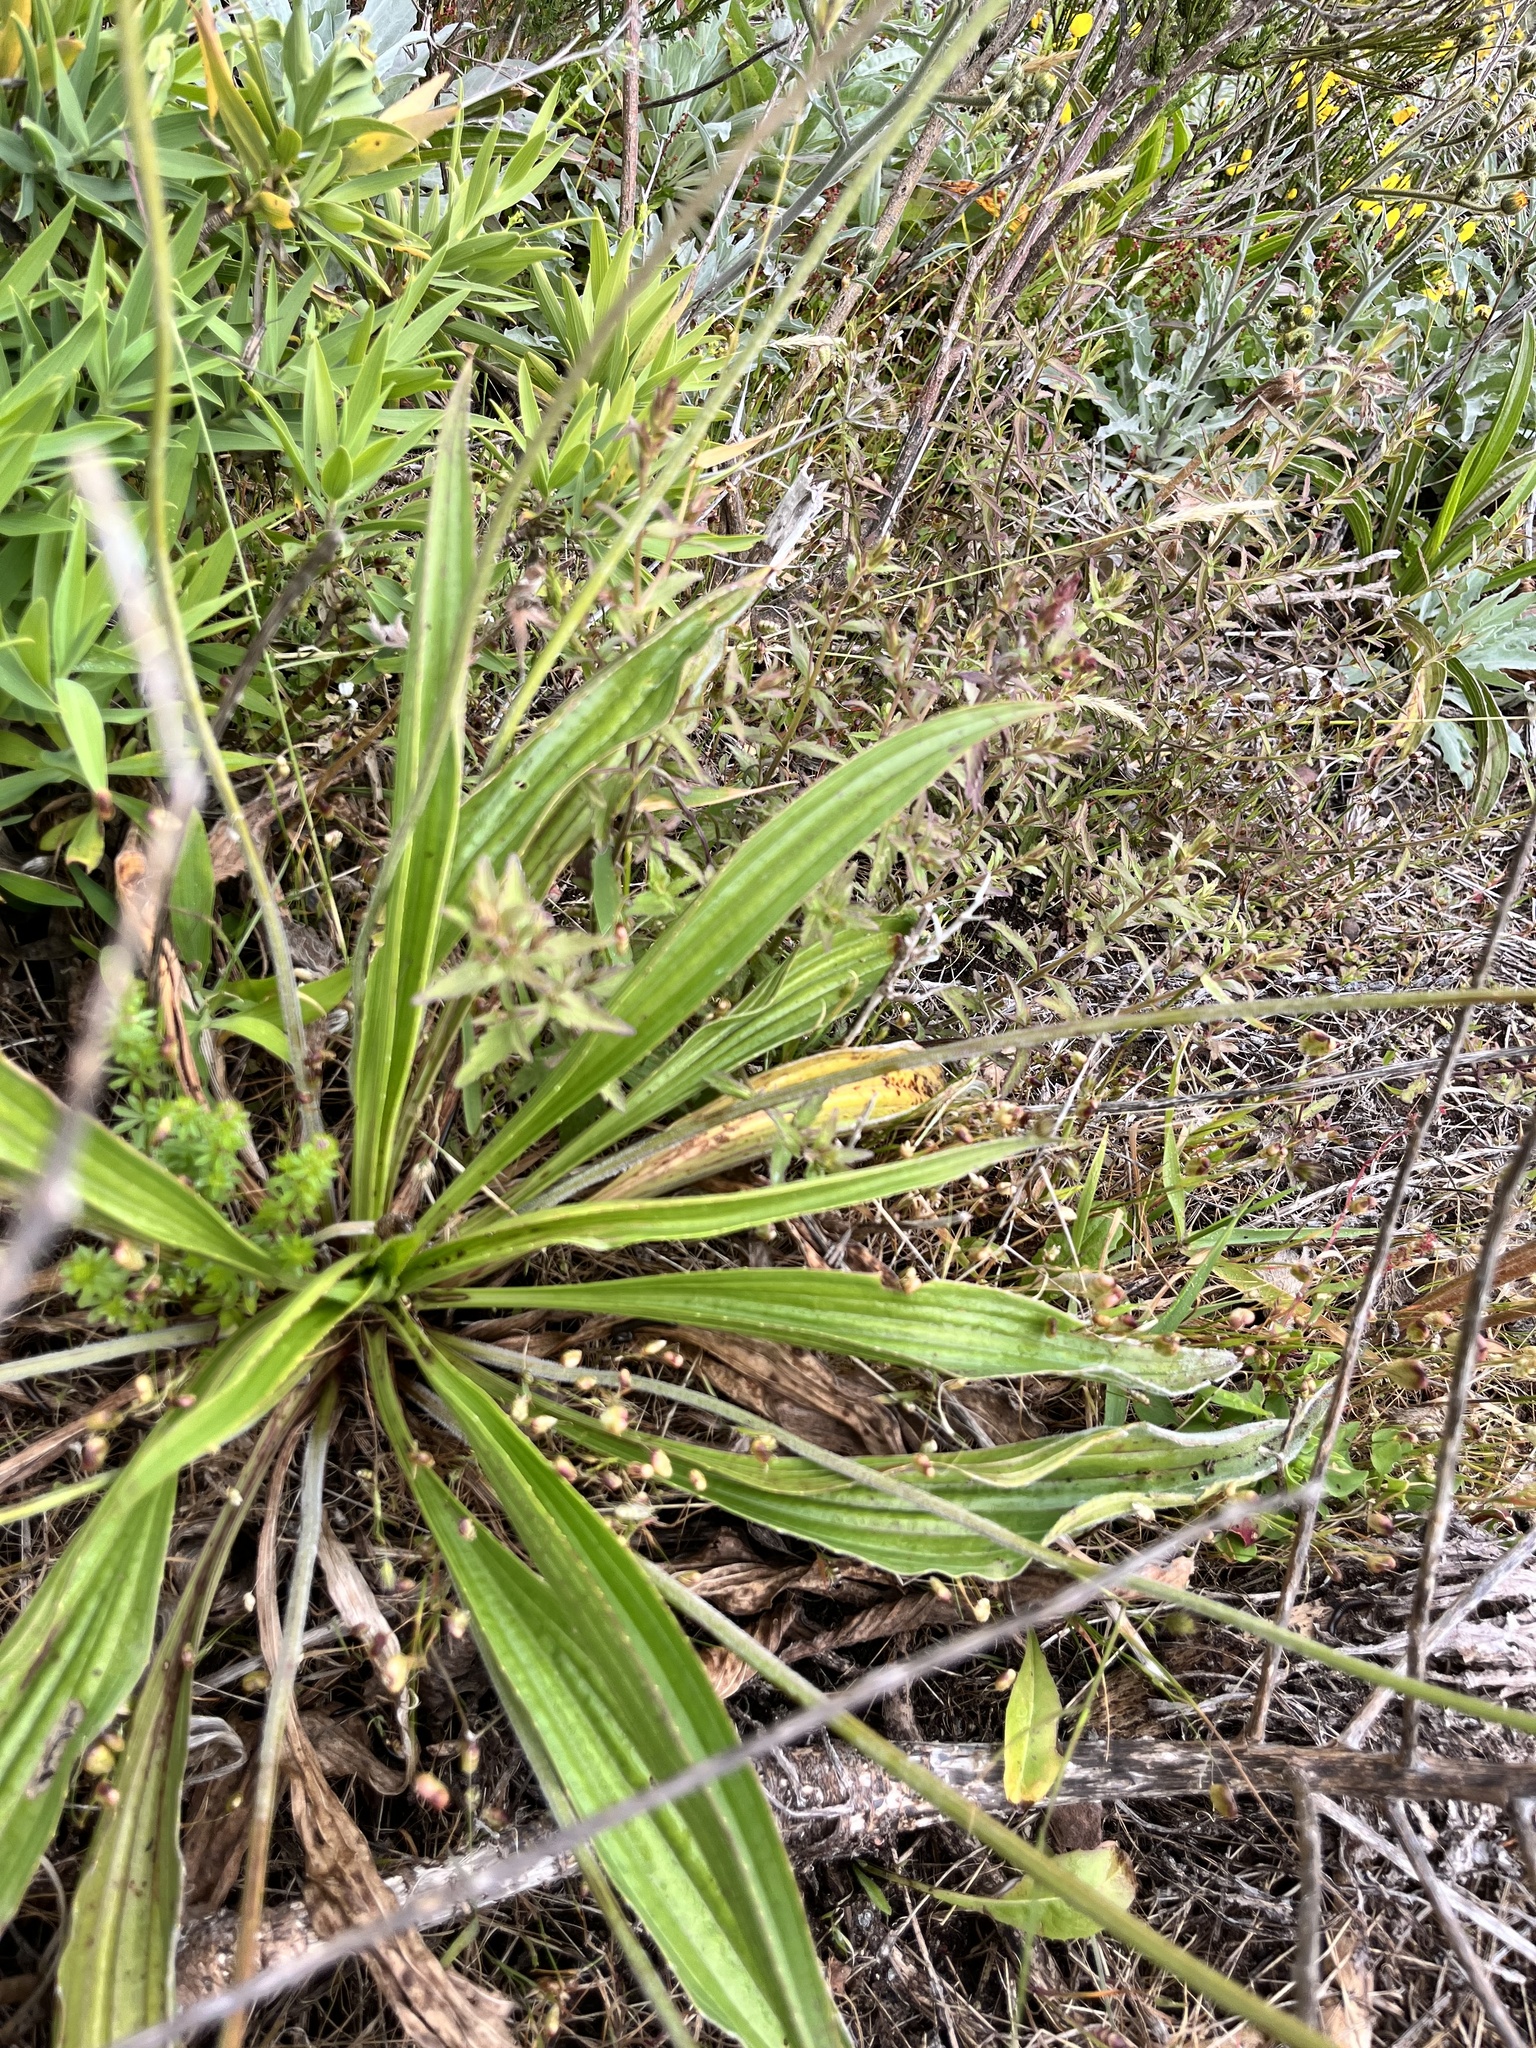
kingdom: Plantae
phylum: Tracheophyta
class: Magnoliopsida
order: Lamiales
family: Plantaginaceae
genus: Plantago
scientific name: Plantago lanceolata
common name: Ribwort plantain
